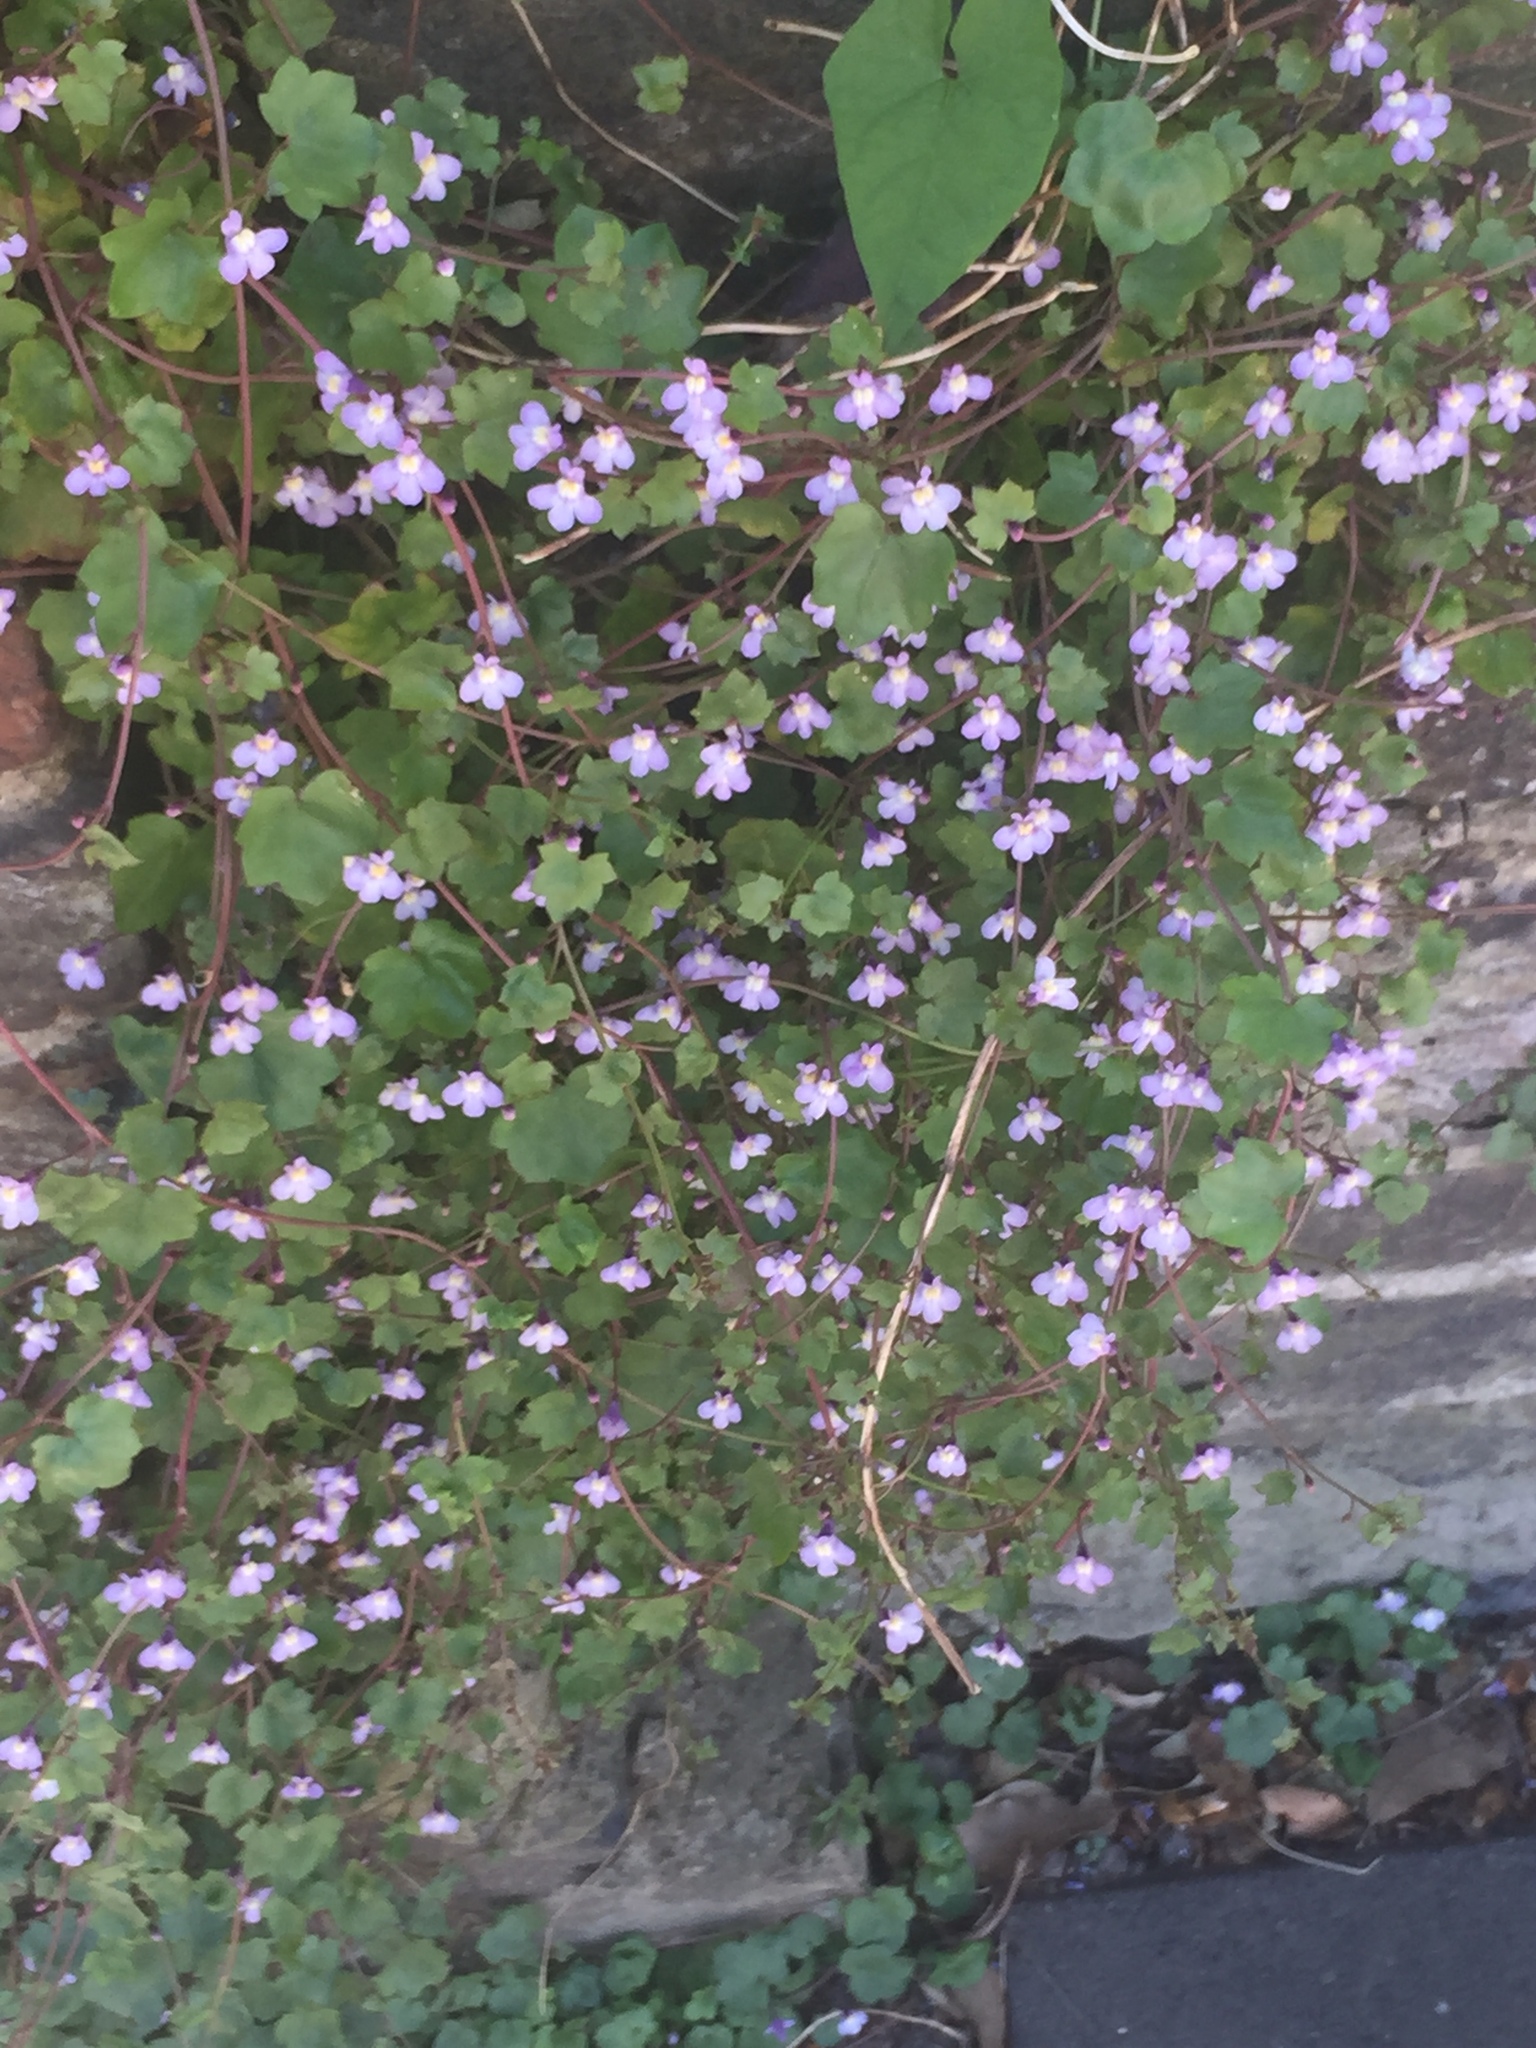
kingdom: Plantae
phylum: Tracheophyta
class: Magnoliopsida
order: Lamiales
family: Plantaginaceae
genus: Cymbalaria
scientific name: Cymbalaria muralis
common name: Ivy-leaved toadflax
